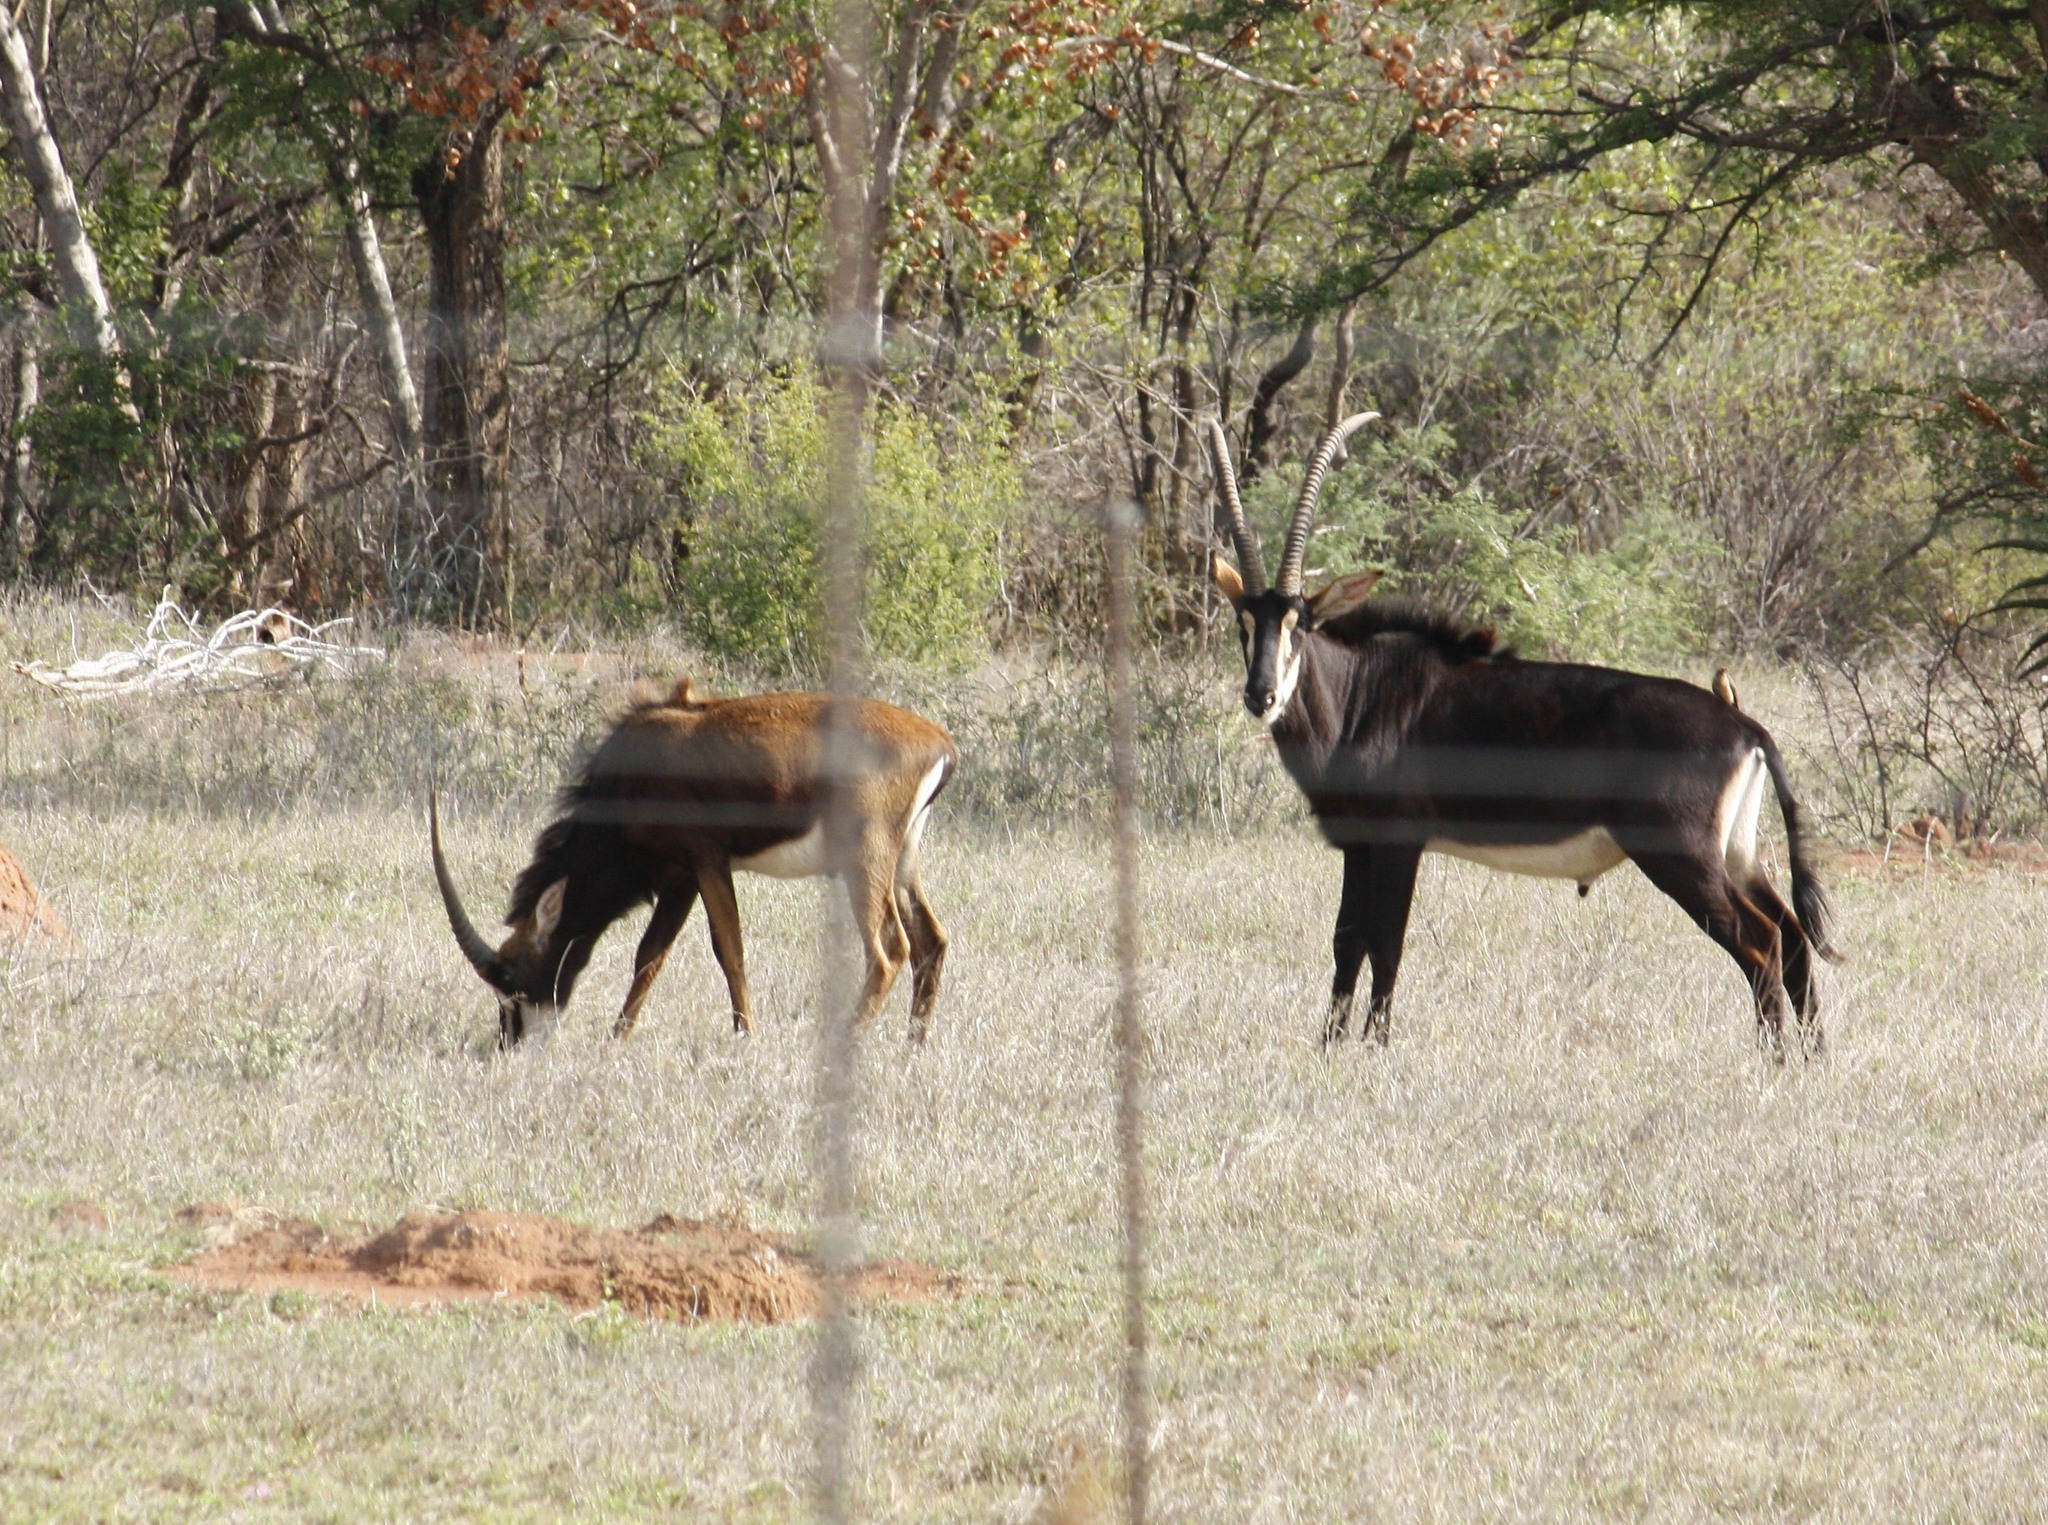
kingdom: Animalia
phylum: Chordata
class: Mammalia
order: Artiodactyla
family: Bovidae
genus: Hippotragus
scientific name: Hippotragus niger
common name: Sable antelope
